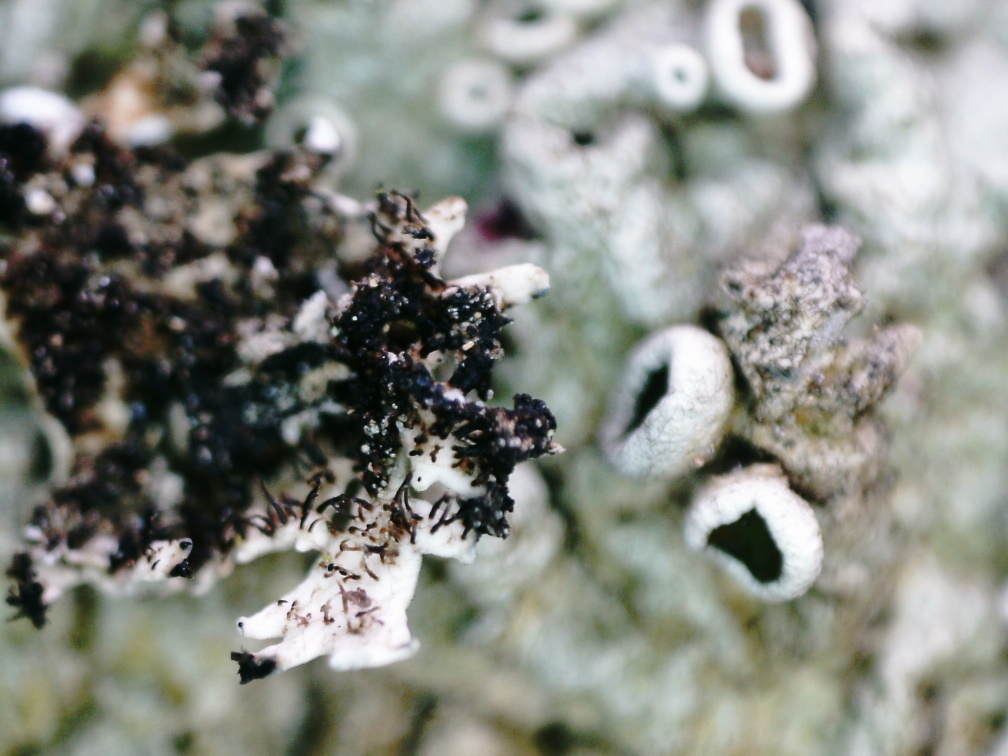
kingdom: Fungi
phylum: Ascomycota
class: Lecanoromycetes
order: Lecanorales
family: Parmeliaceae
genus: Arctoparmelia
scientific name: Arctoparmelia centrifuga
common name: Concentric ring lichen
